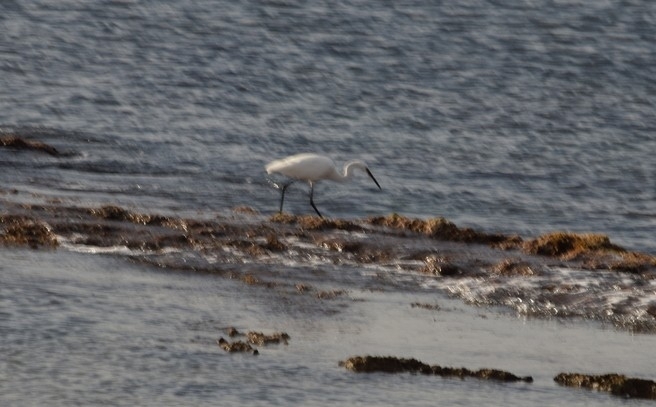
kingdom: Animalia
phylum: Chordata
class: Aves
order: Pelecaniformes
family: Ardeidae
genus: Egretta
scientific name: Egretta garzetta
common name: Little egret
